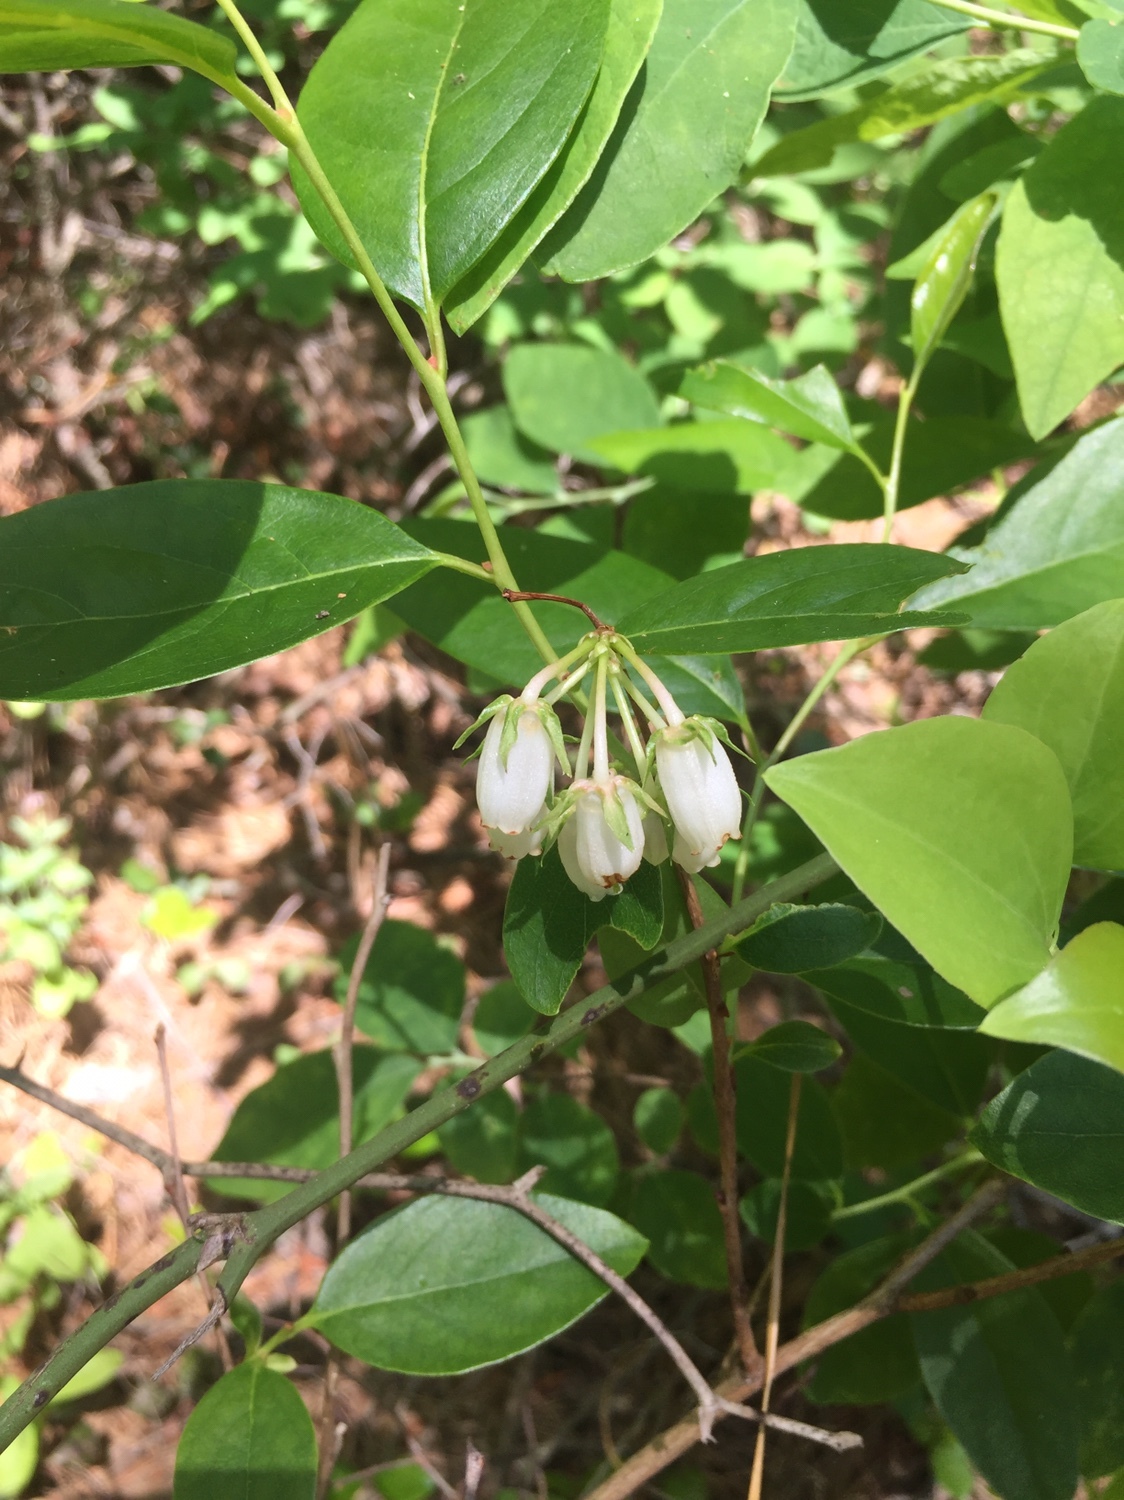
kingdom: Plantae
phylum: Tracheophyta
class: Magnoliopsida
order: Ericales
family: Ericaceae
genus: Lyonia
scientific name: Lyonia mariana
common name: Staggerbush
